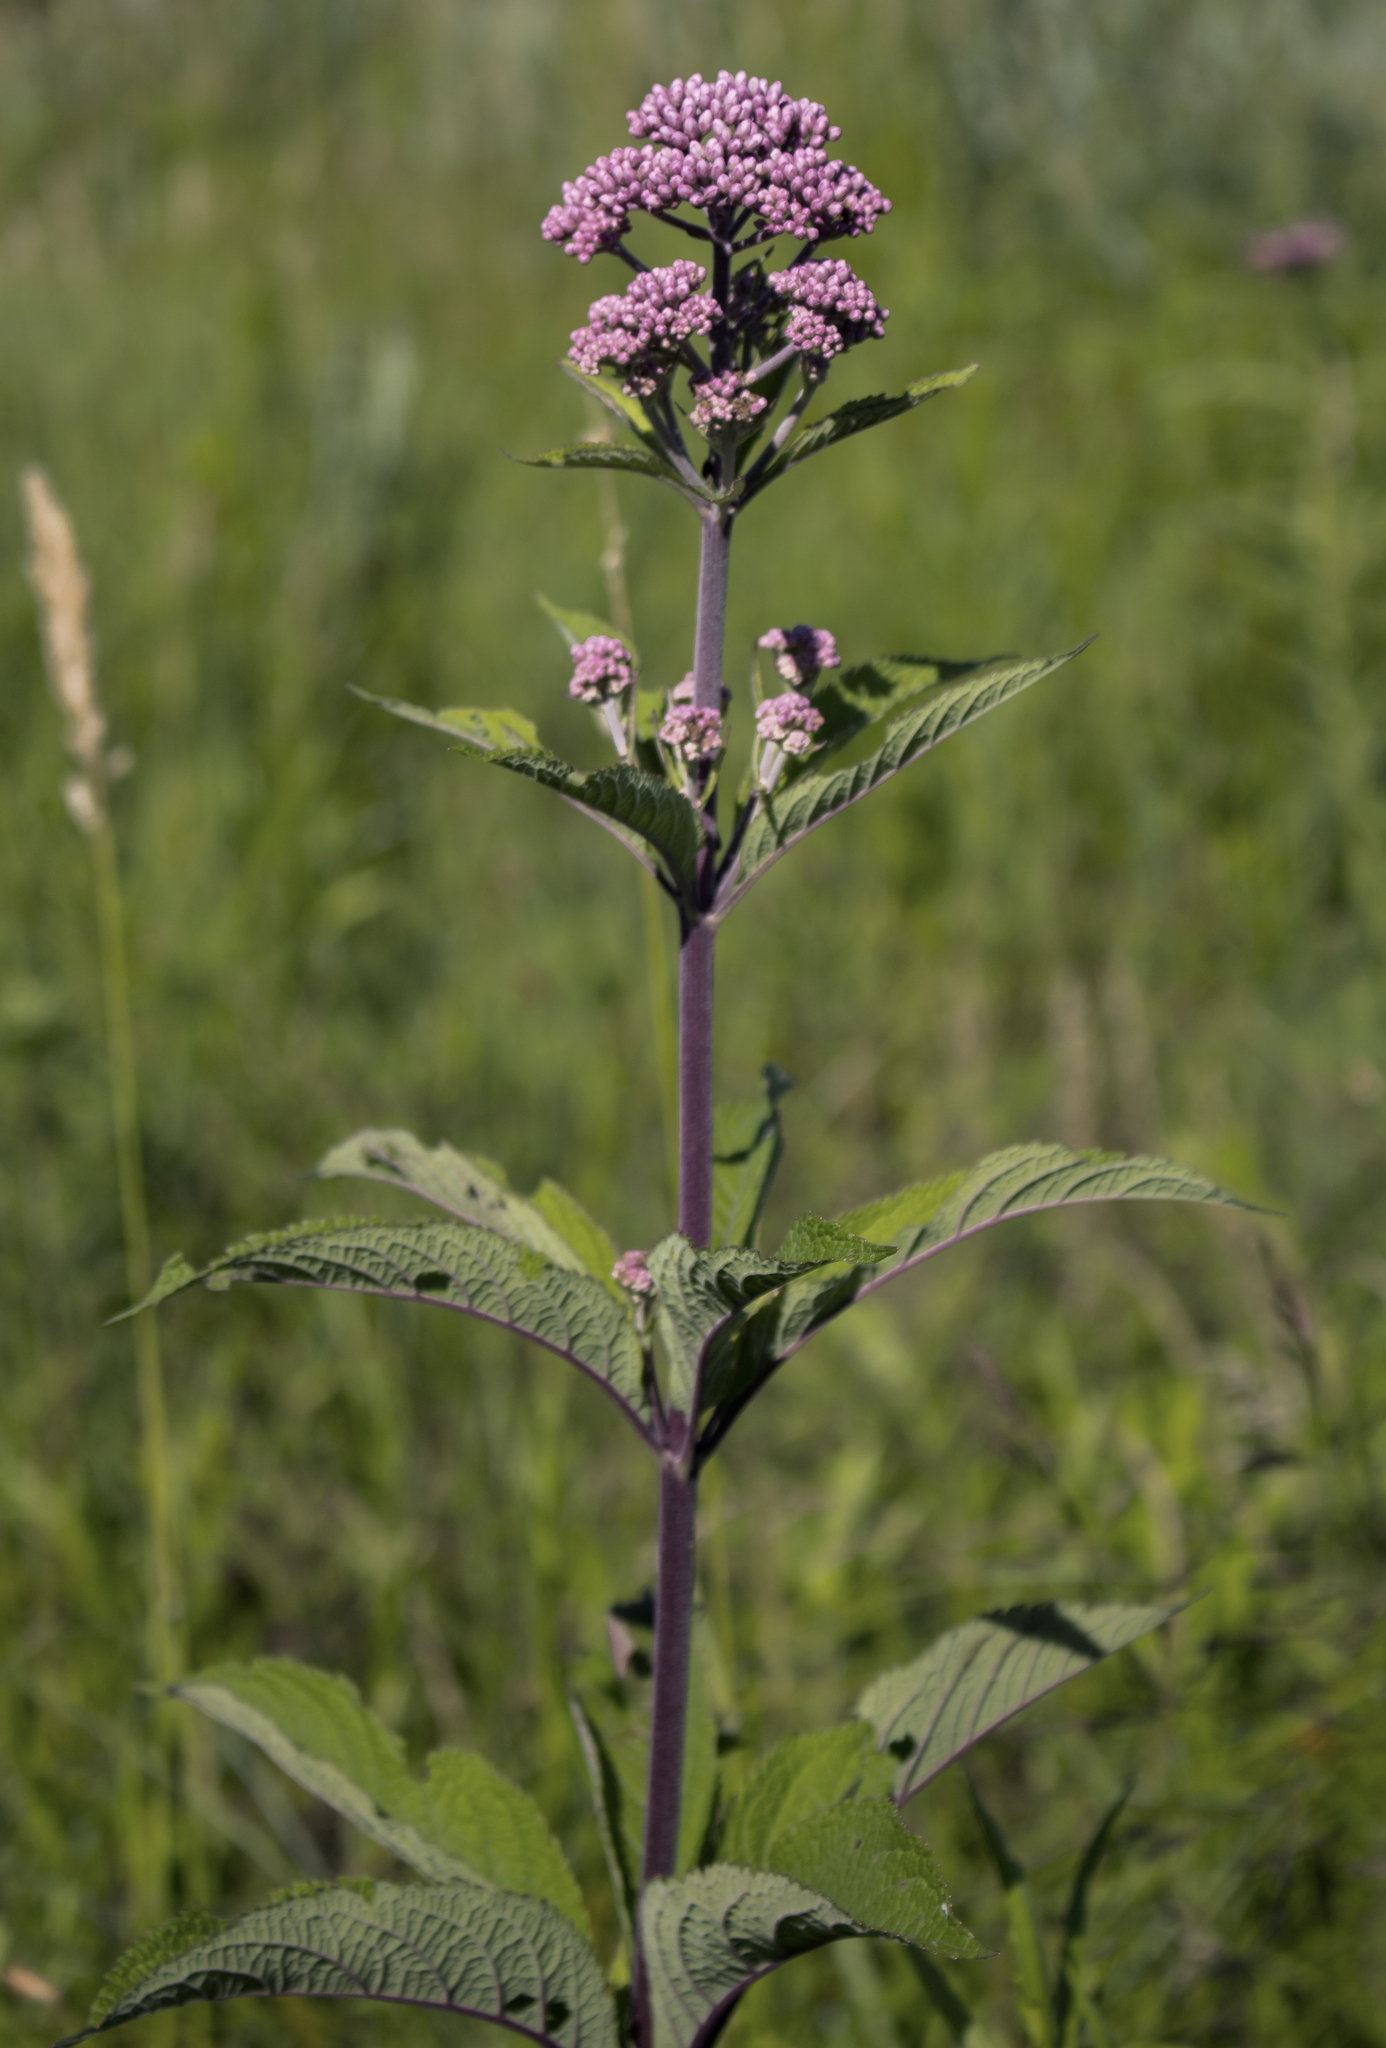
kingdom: Plantae
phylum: Tracheophyta
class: Magnoliopsida
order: Asterales
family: Asteraceae
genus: Eutrochium
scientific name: Eutrochium maculatum
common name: Spotted joe pye weed
